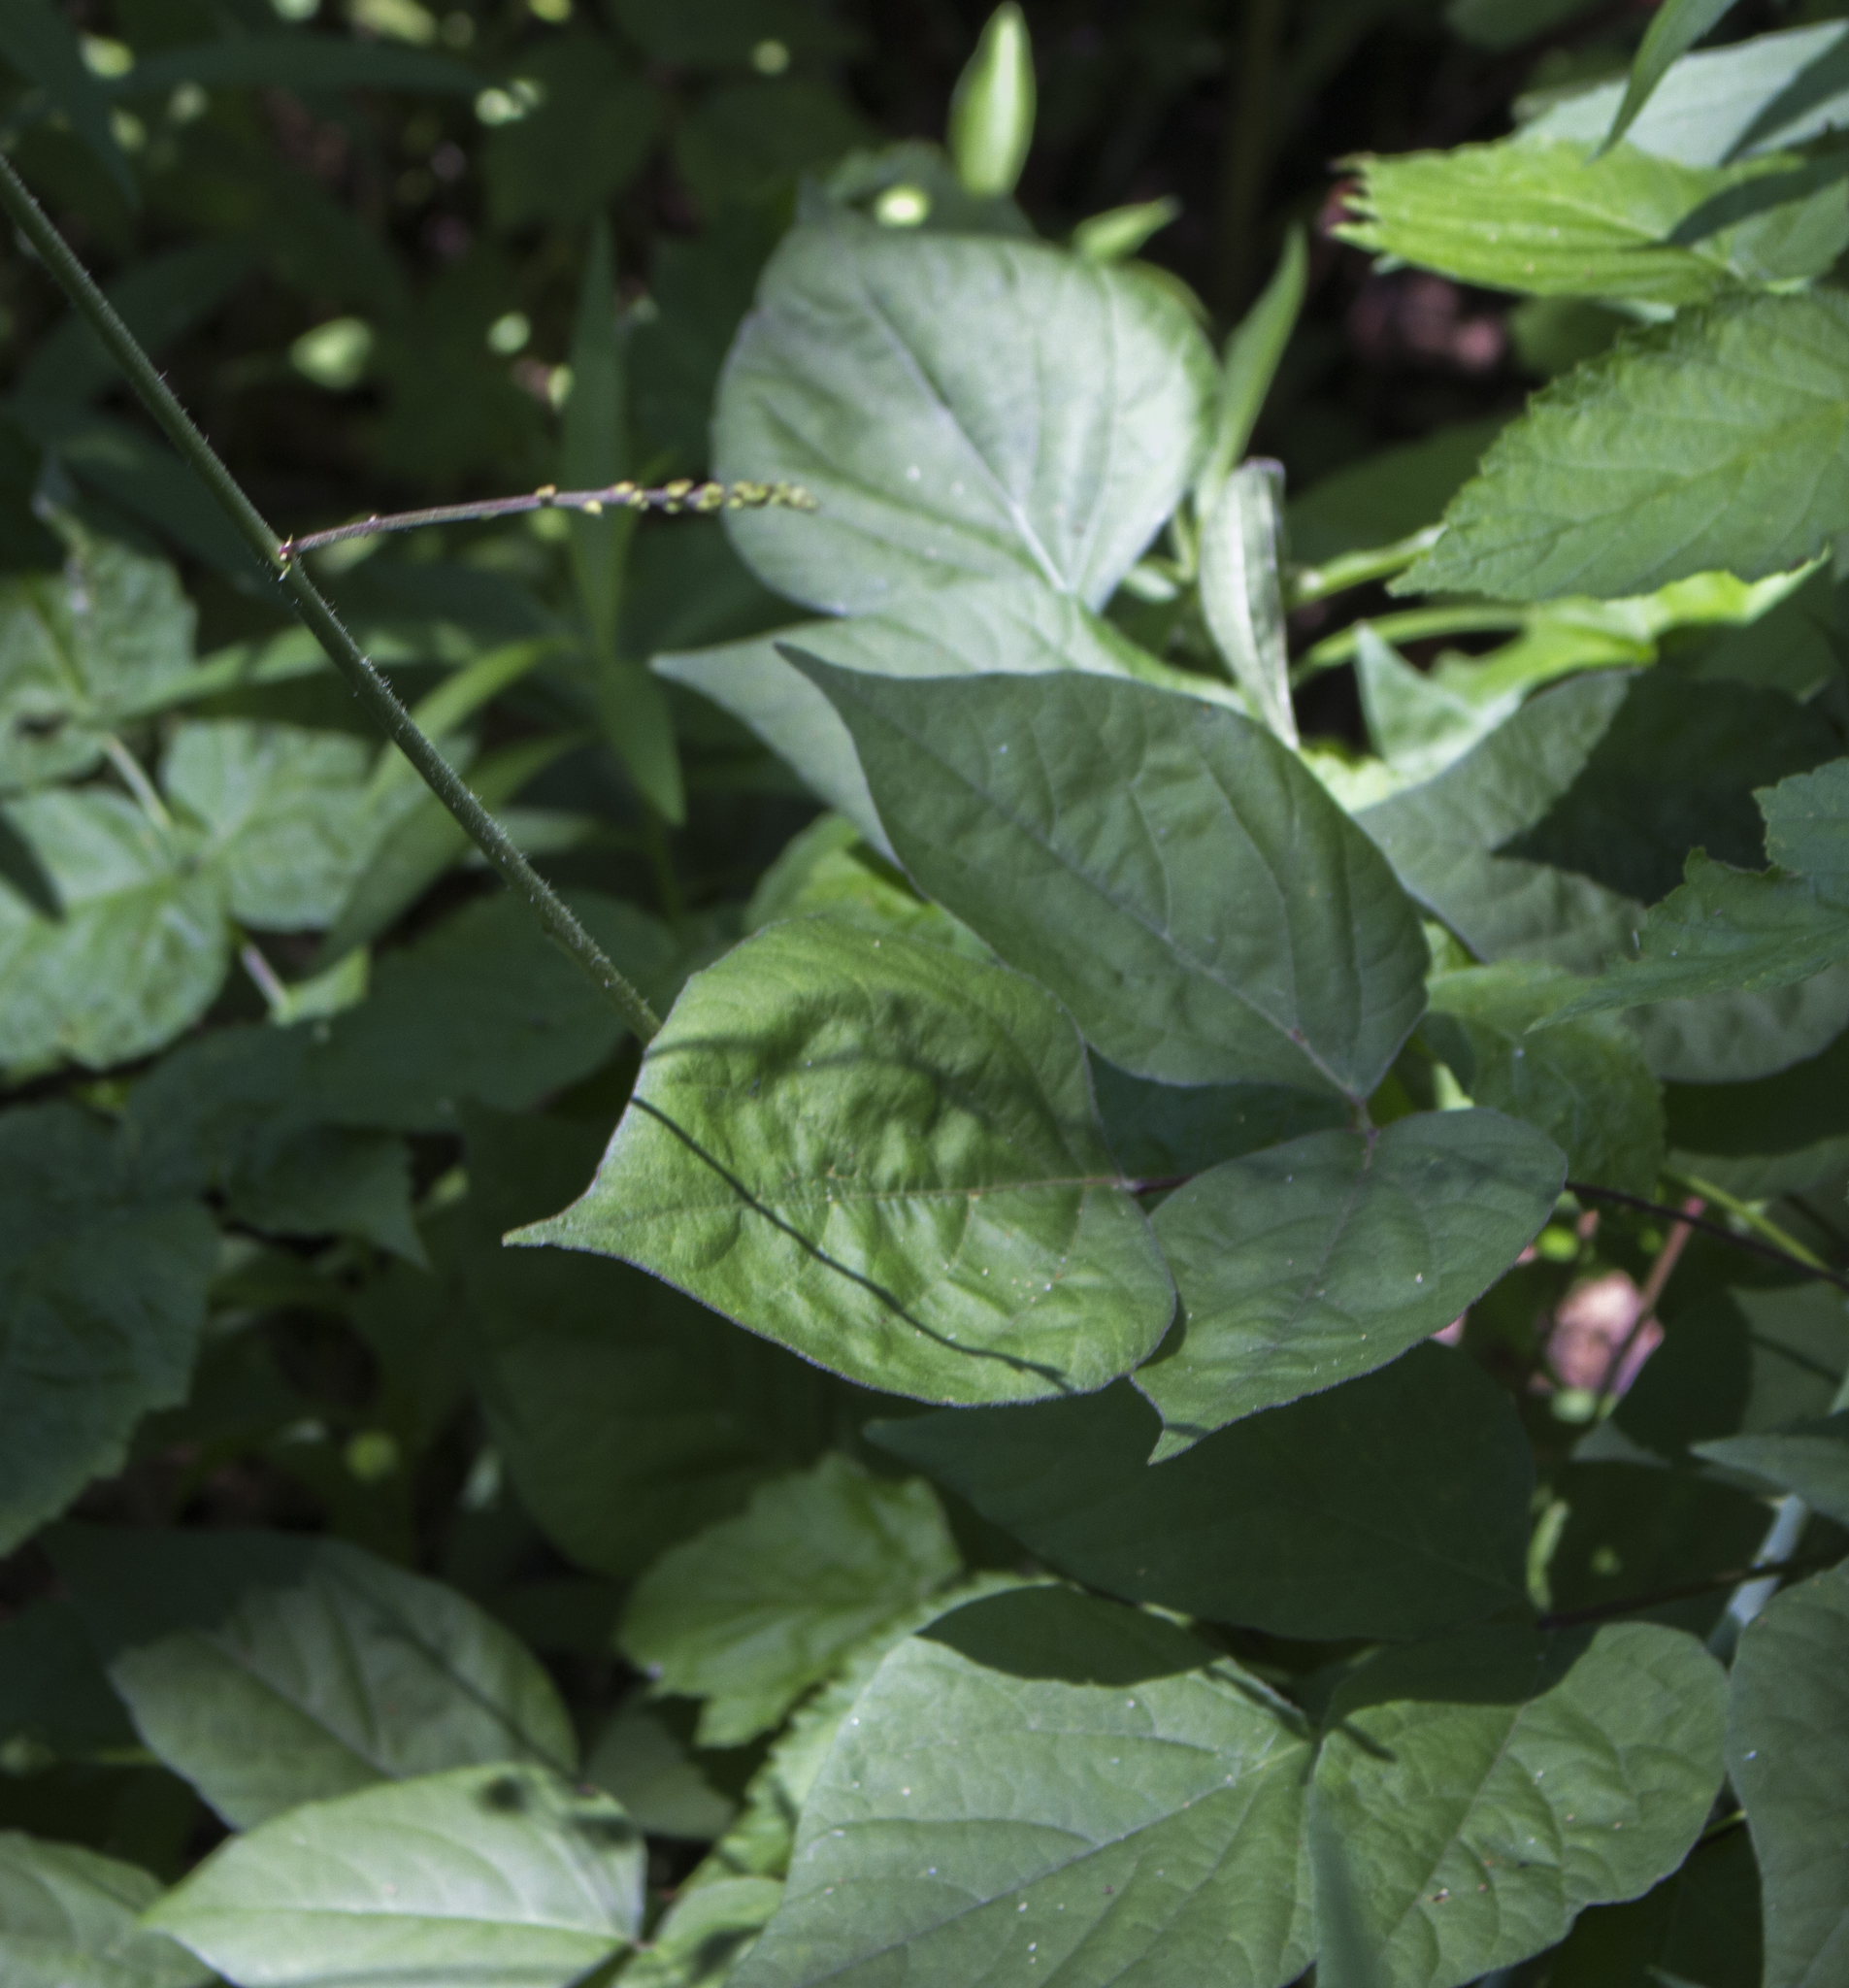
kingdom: Plantae
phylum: Tracheophyta
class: Magnoliopsida
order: Fabales
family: Fabaceae
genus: Hylodesmum
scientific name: Hylodesmum glutinosum
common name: Clustered-leaved tick-trefoil
